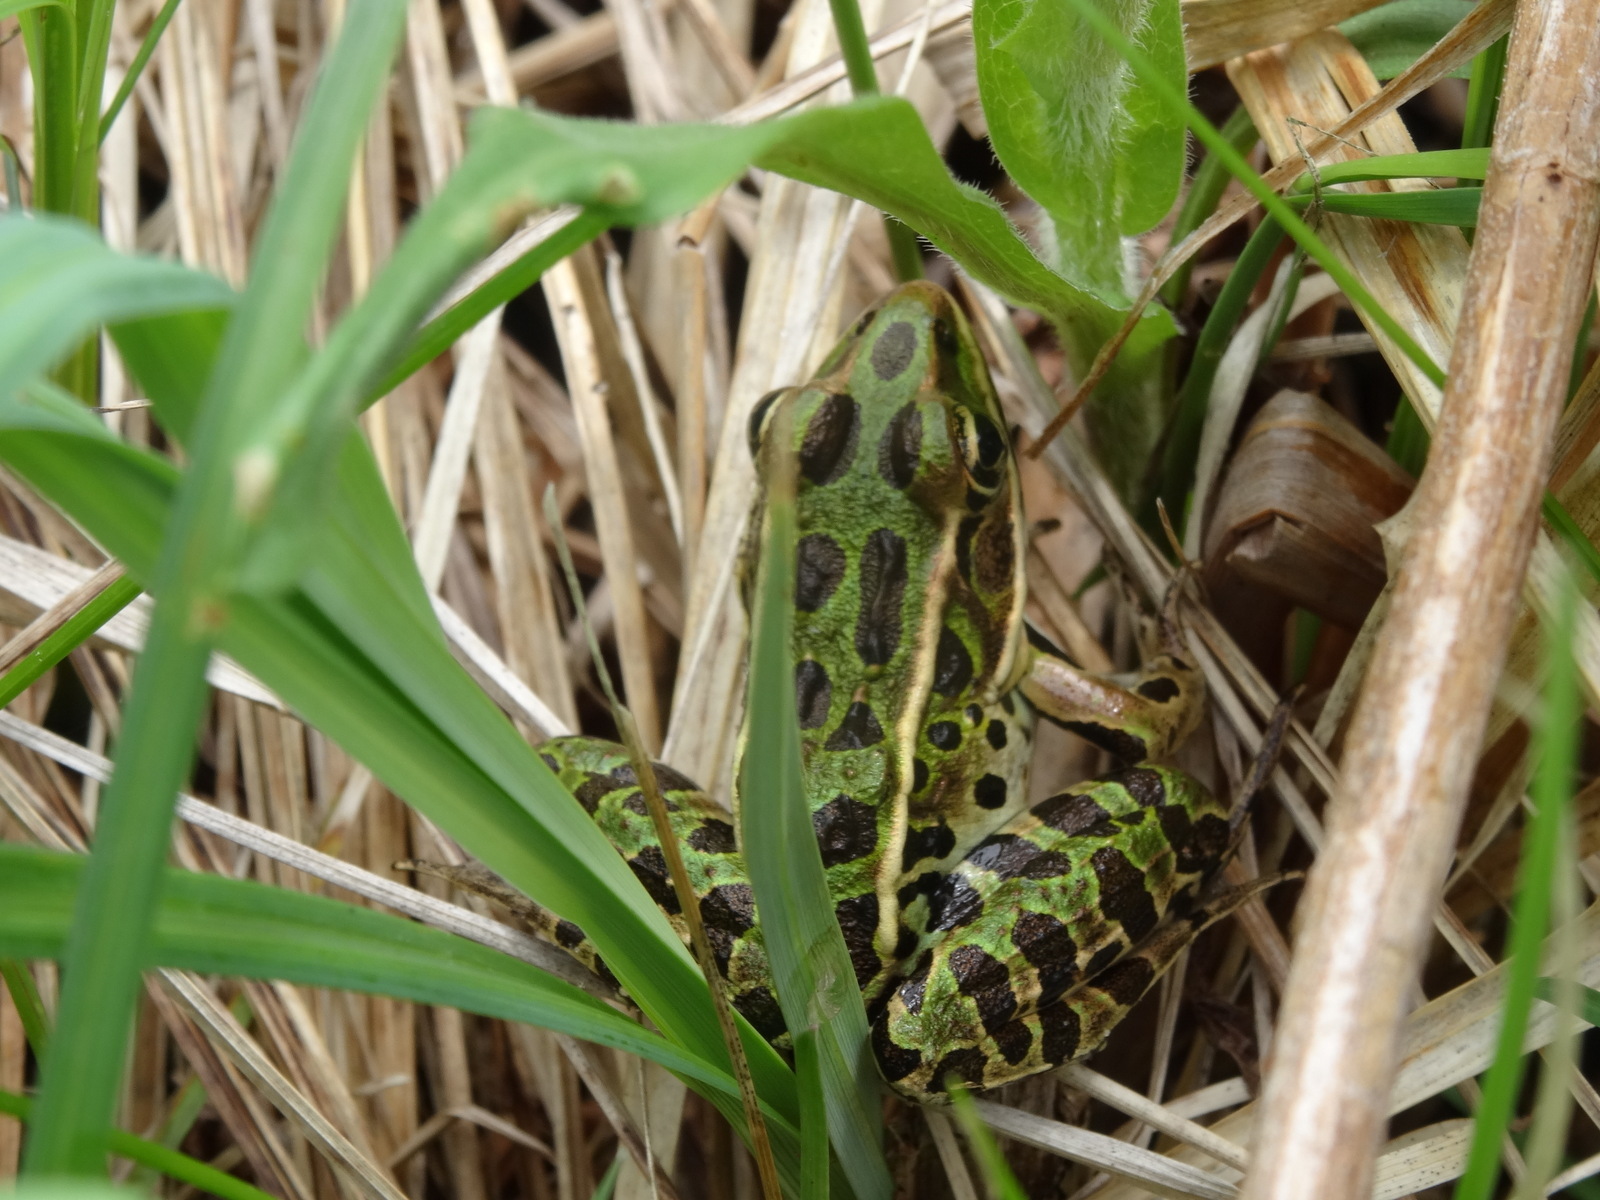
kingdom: Animalia
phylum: Chordata
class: Amphibia
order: Anura
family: Ranidae
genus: Lithobates
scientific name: Lithobates pipiens
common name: Northern leopard frog
